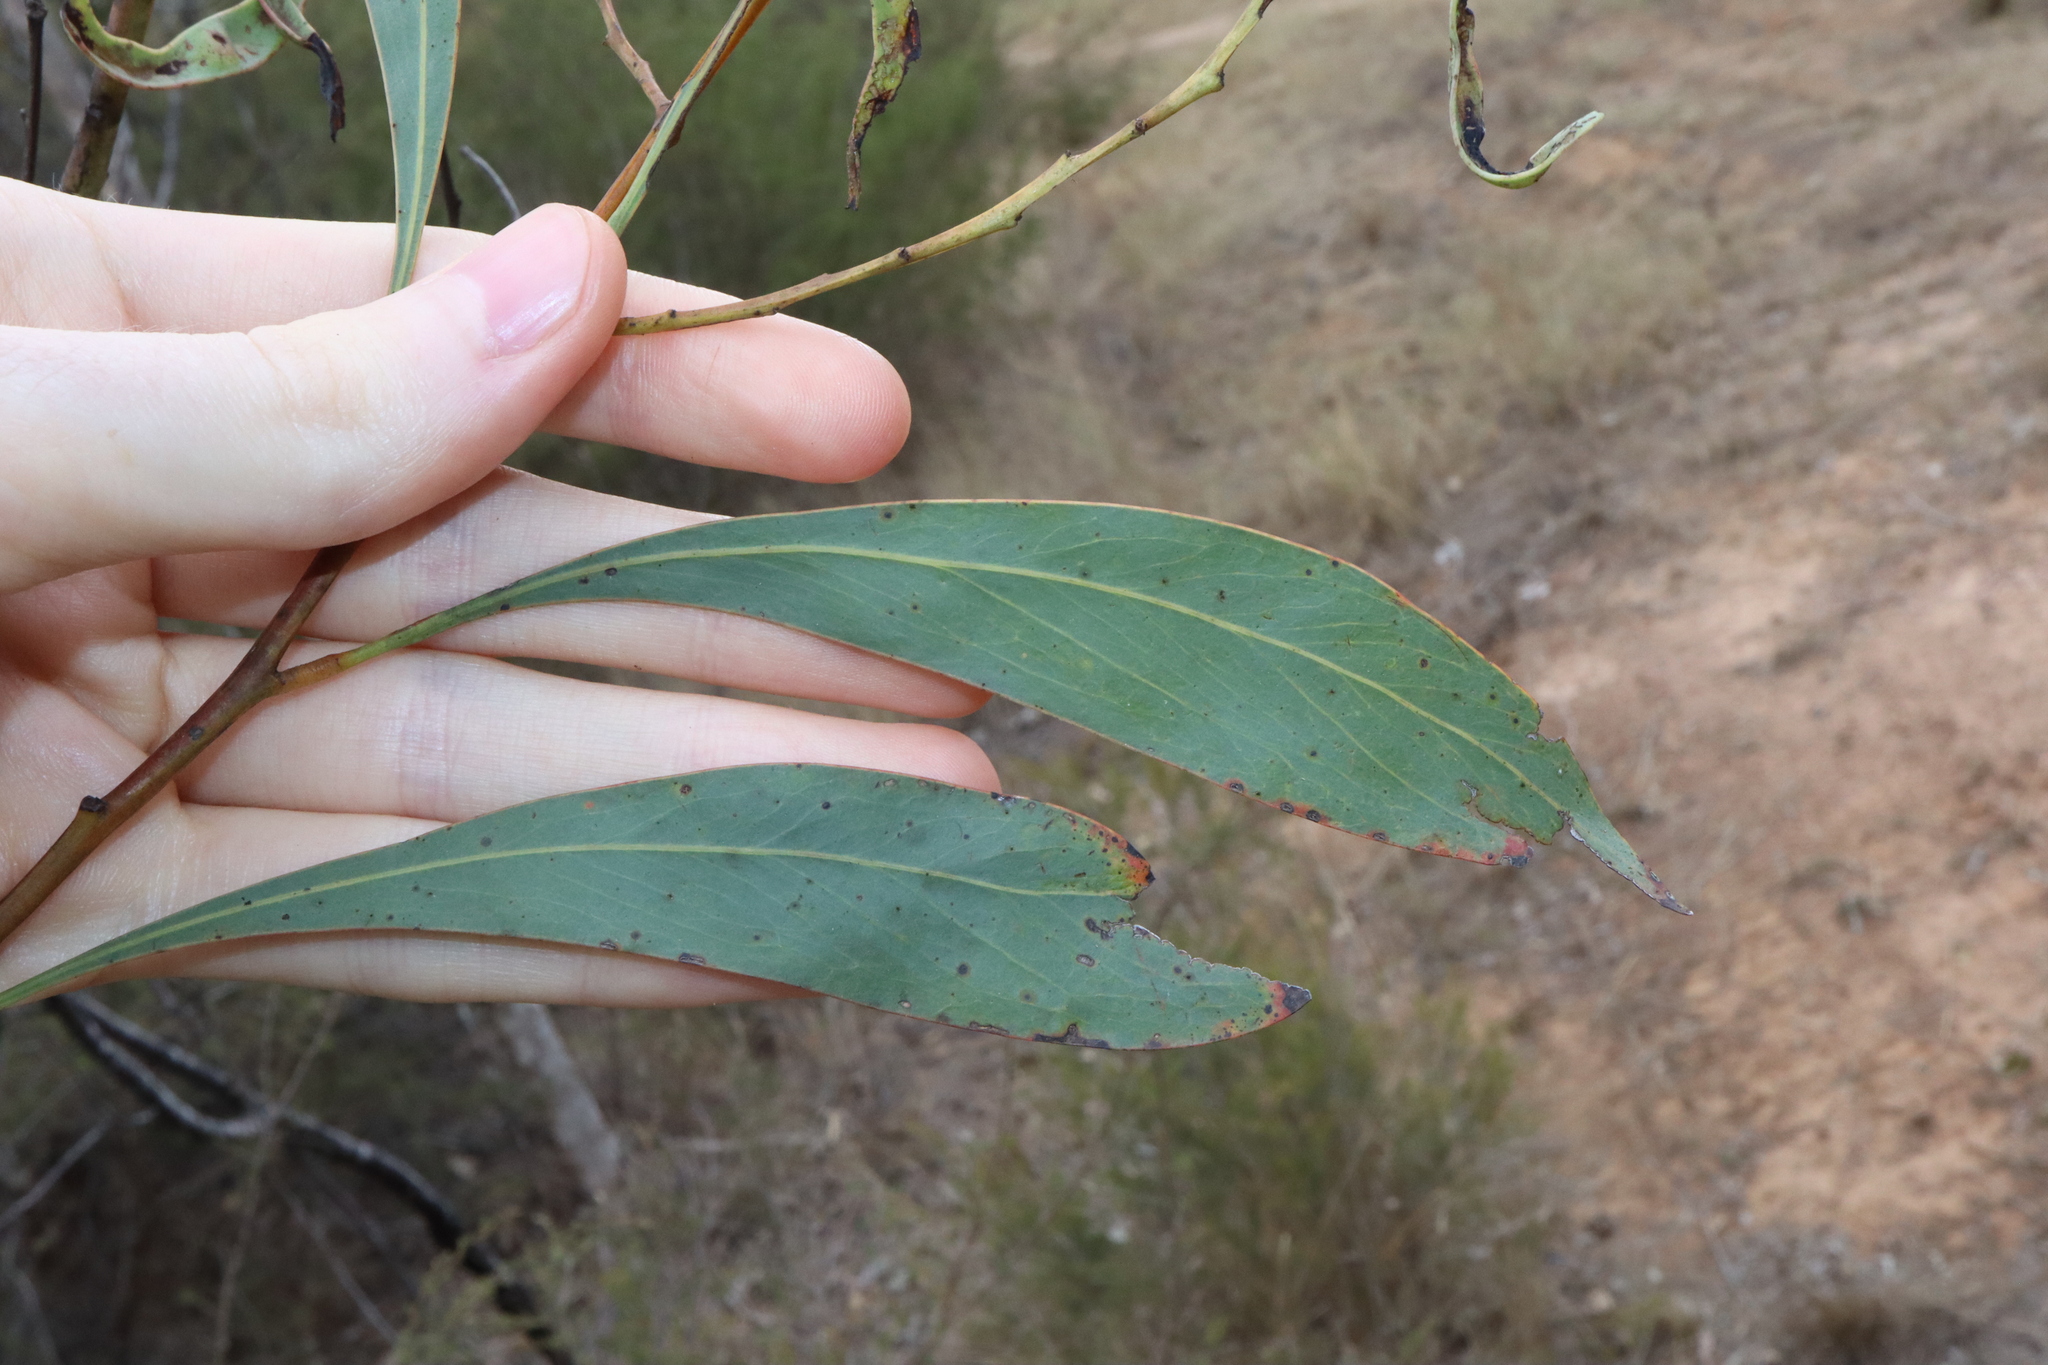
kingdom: Plantae
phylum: Tracheophyta
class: Magnoliopsida
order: Fabales
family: Fabaceae
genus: Acacia
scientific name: Acacia falcata
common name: Burra acacia
